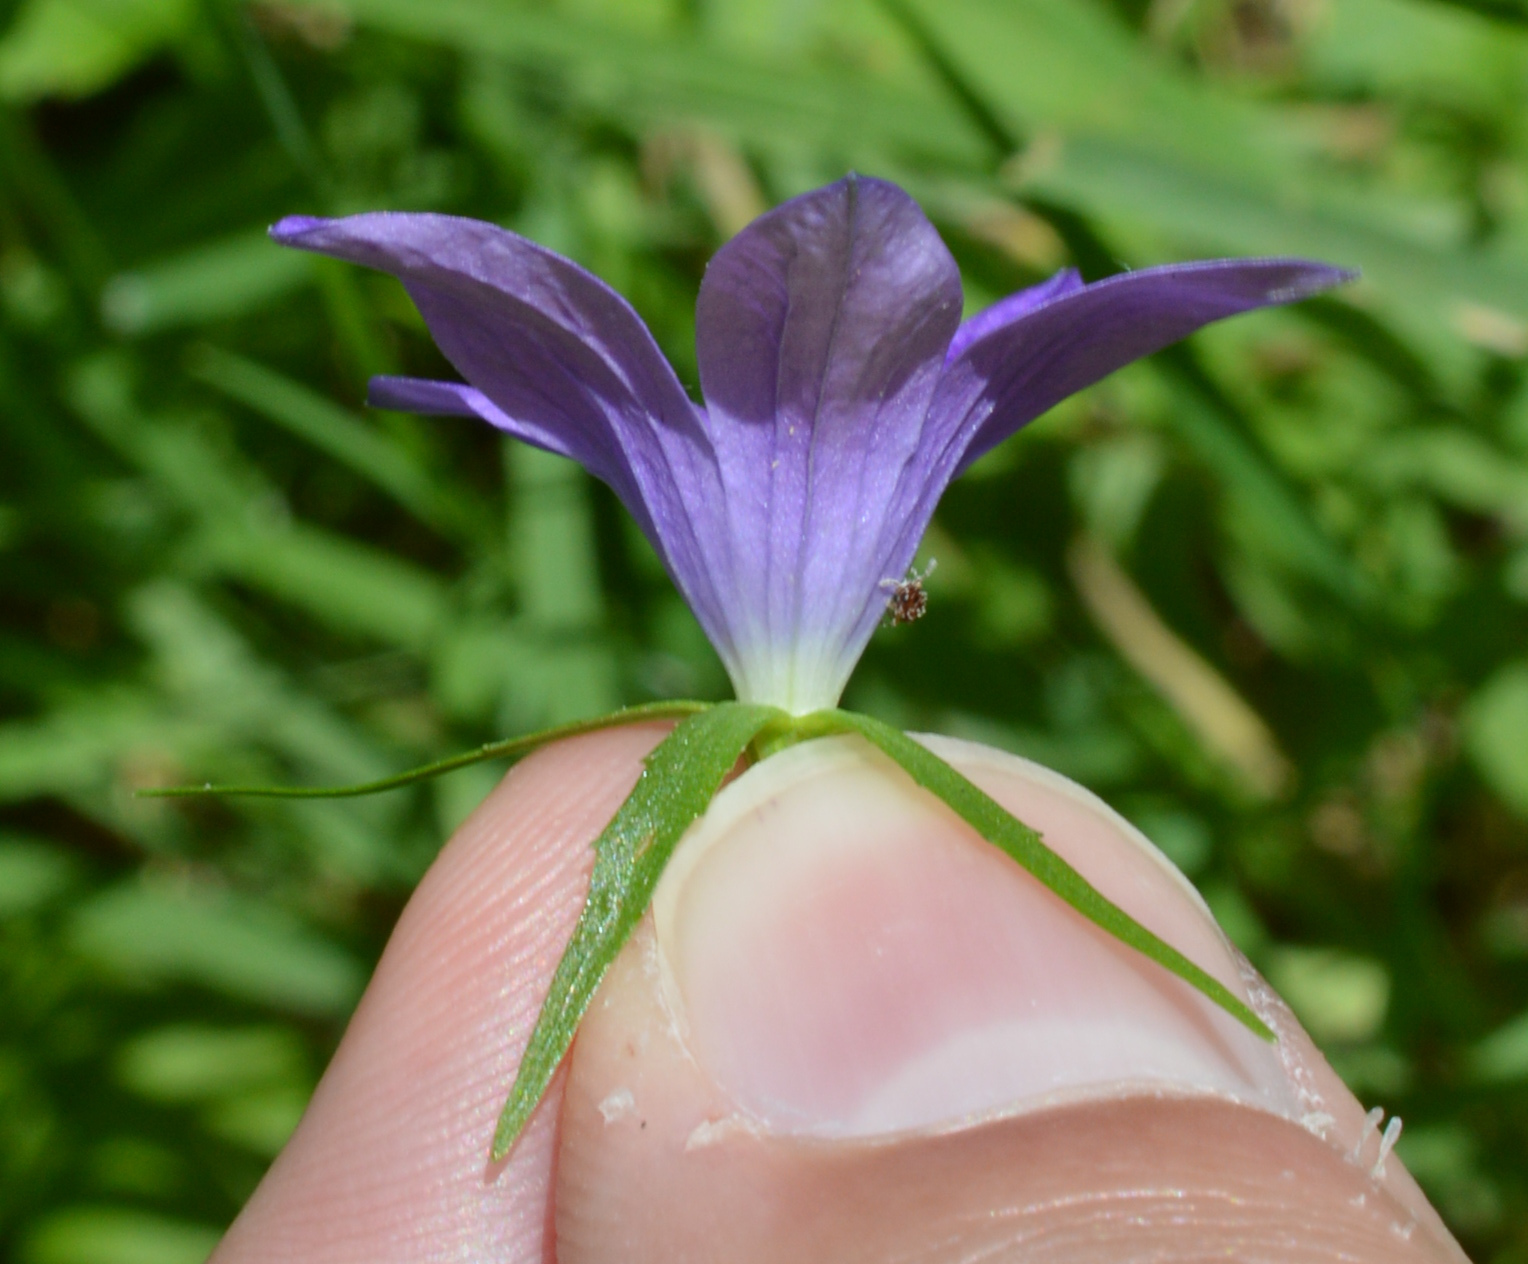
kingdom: Plantae
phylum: Tracheophyta
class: Magnoliopsida
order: Asterales
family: Campanulaceae
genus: Campanula
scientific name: Campanula patula
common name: Spreading bellflower
